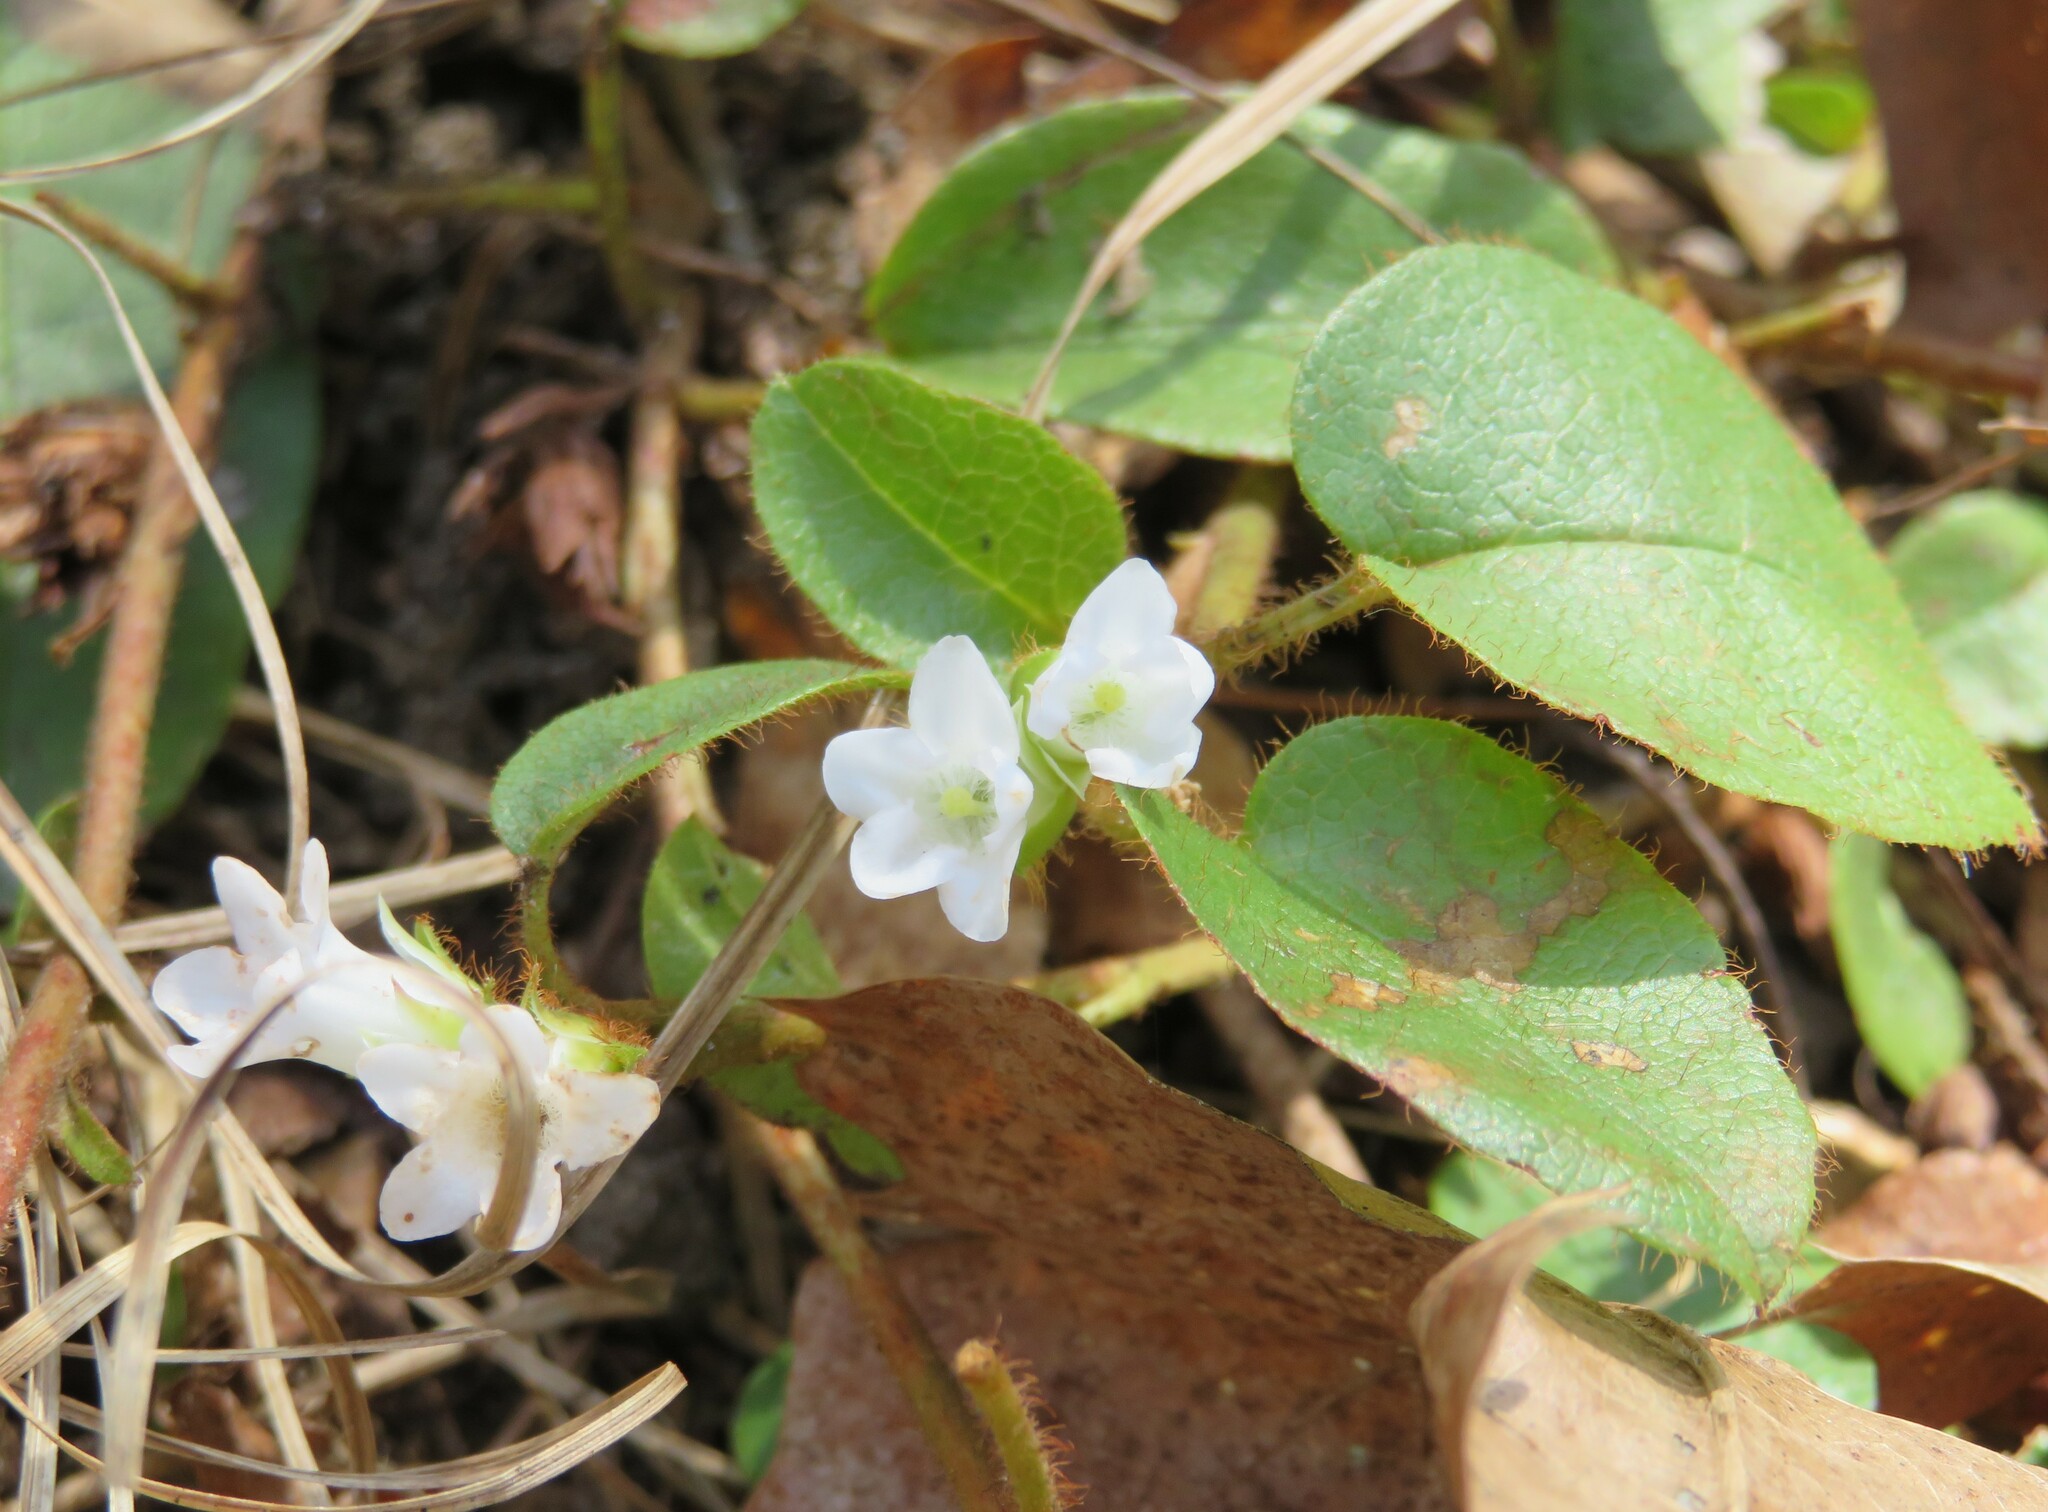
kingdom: Plantae
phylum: Tracheophyta
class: Magnoliopsida
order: Ericales
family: Ericaceae
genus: Epigaea
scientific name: Epigaea repens
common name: Gravelroot
